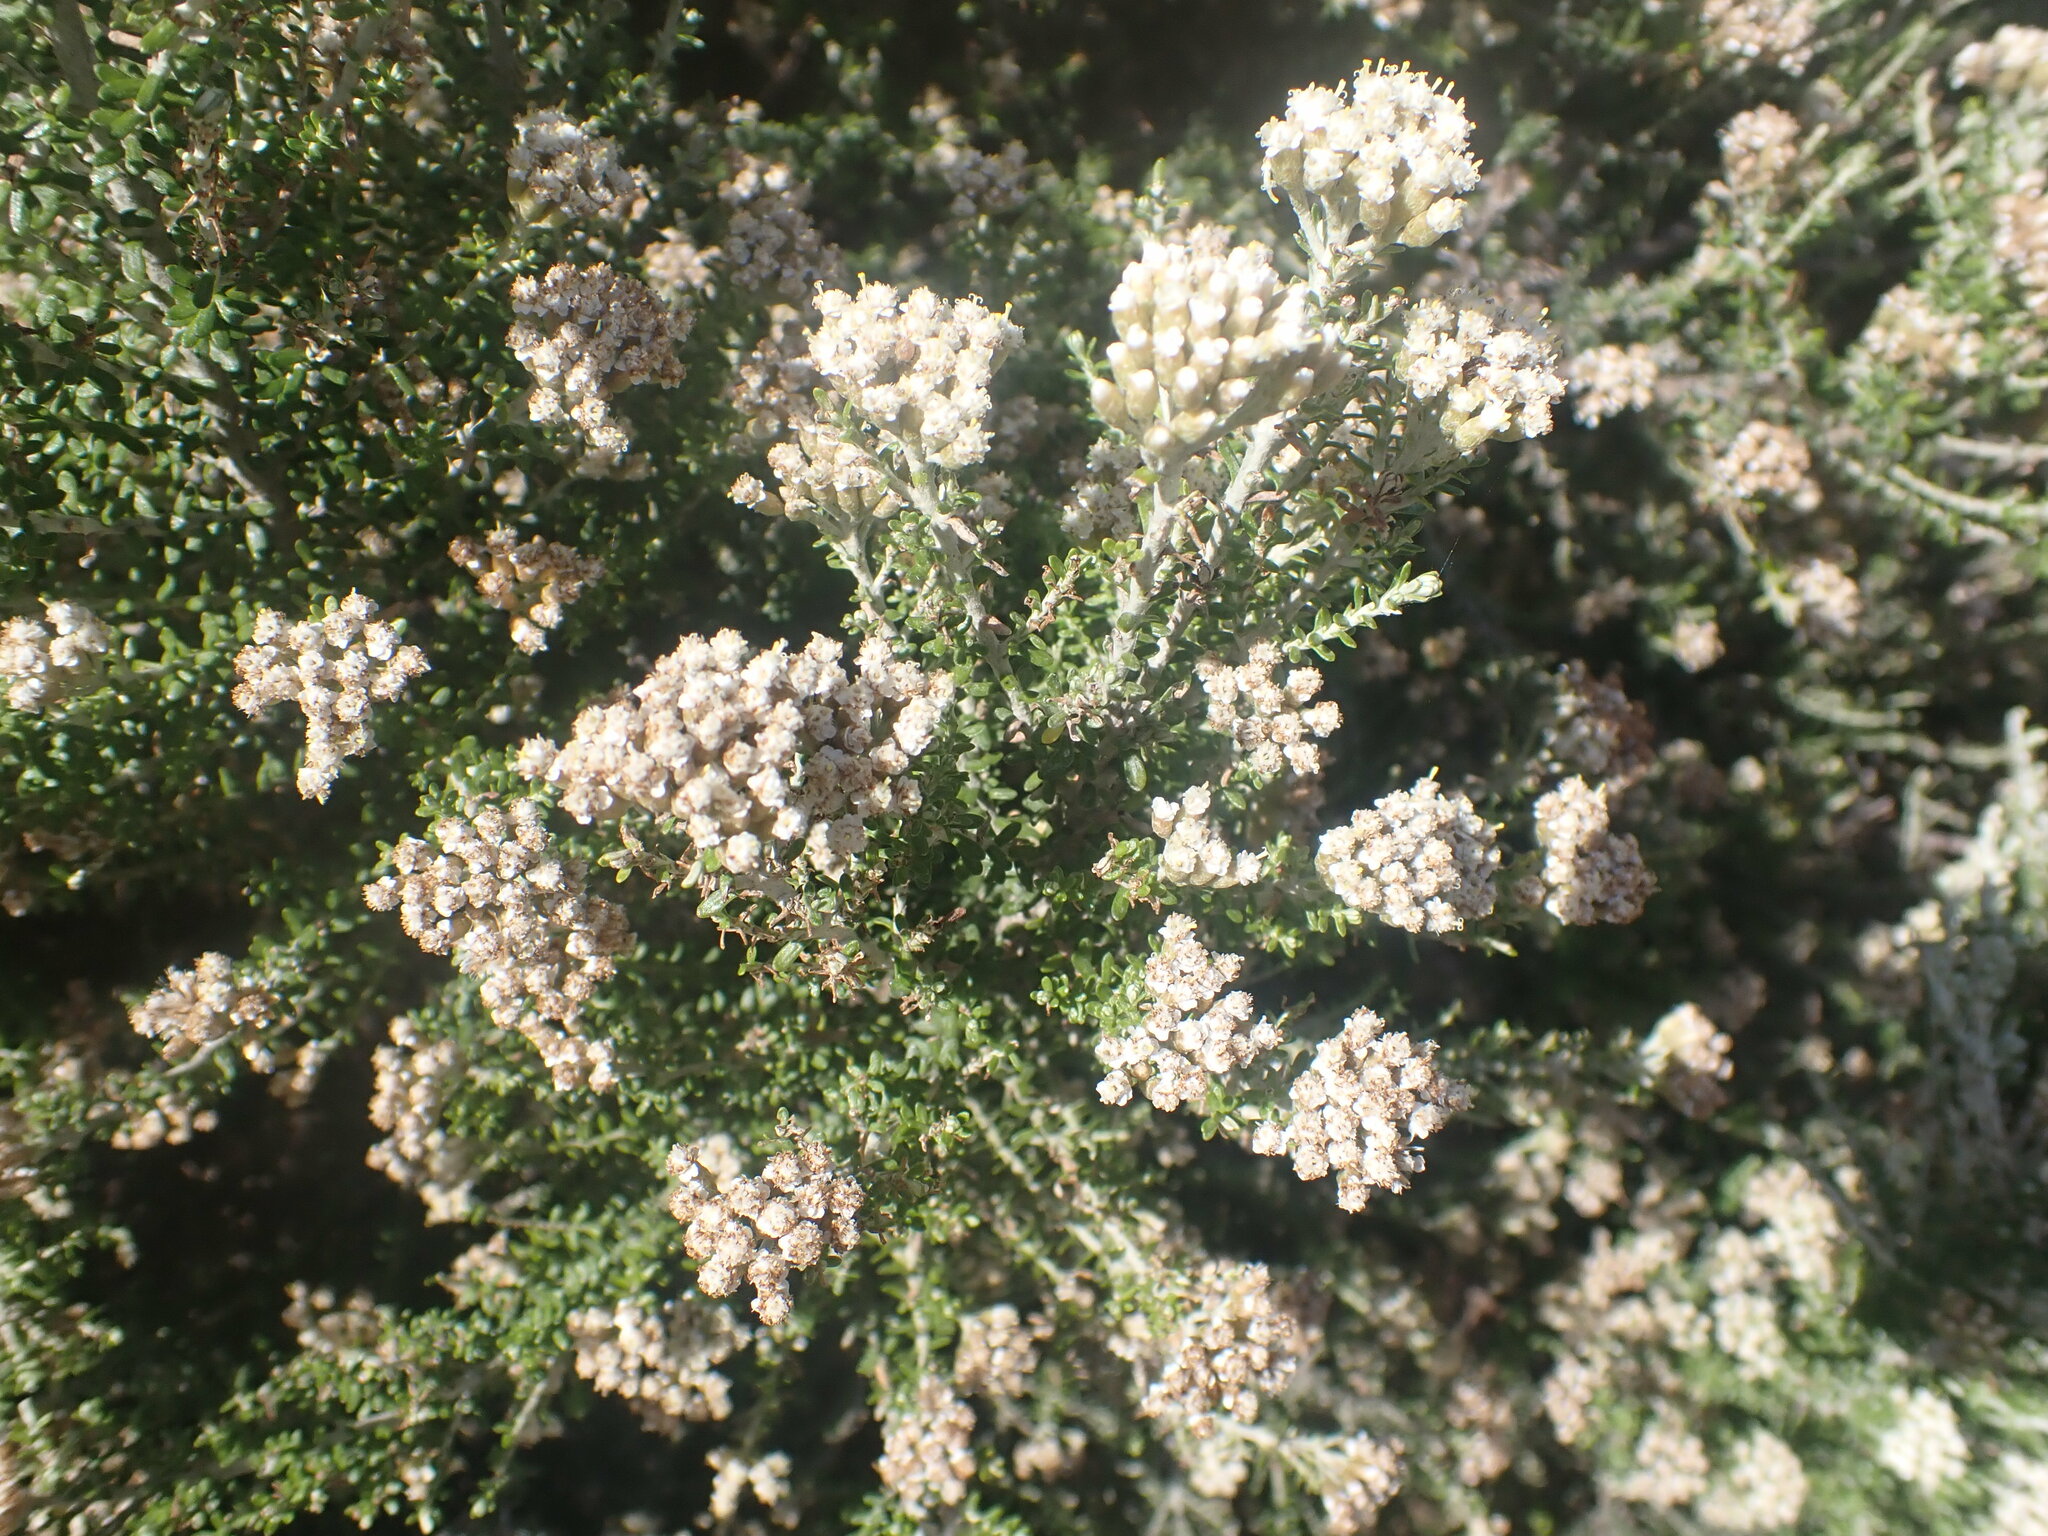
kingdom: Plantae
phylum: Tracheophyta
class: Magnoliopsida
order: Asterales
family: Asteraceae
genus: Ozothamnus
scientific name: Ozothamnus leptophyllus
